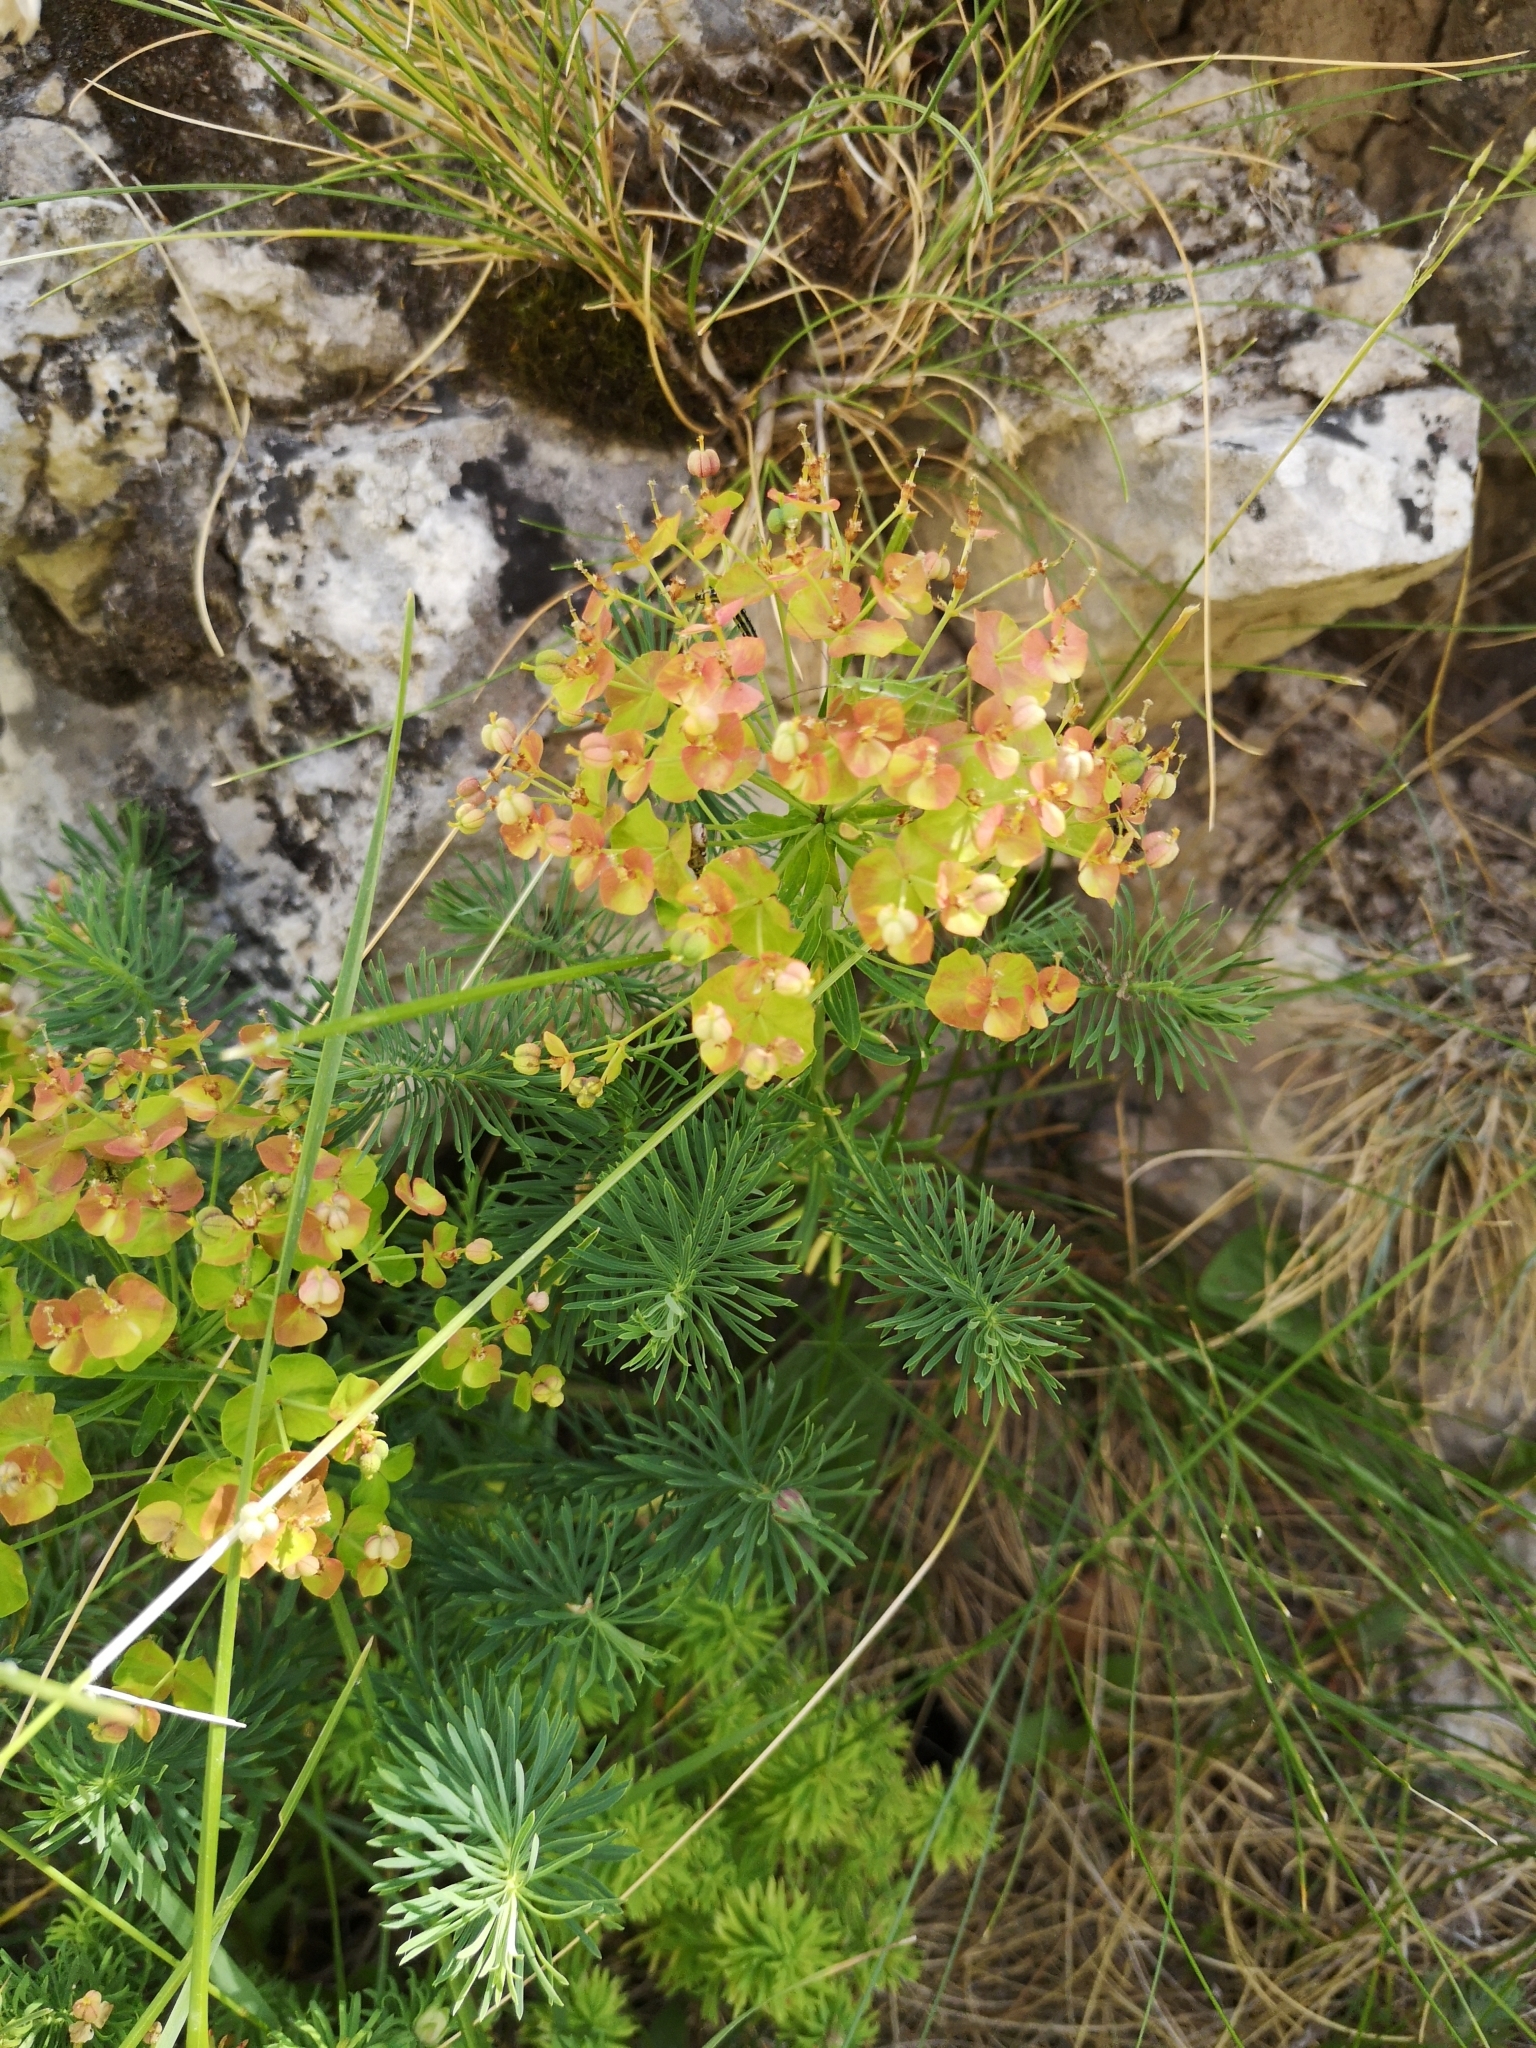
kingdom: Plantae
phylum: Tracheophyta
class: Magnoliopsida
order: Malpighiales
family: Euphorbiaceae
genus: Euphorbia
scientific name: Euphorbia cyparissias
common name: Cypress spurge
